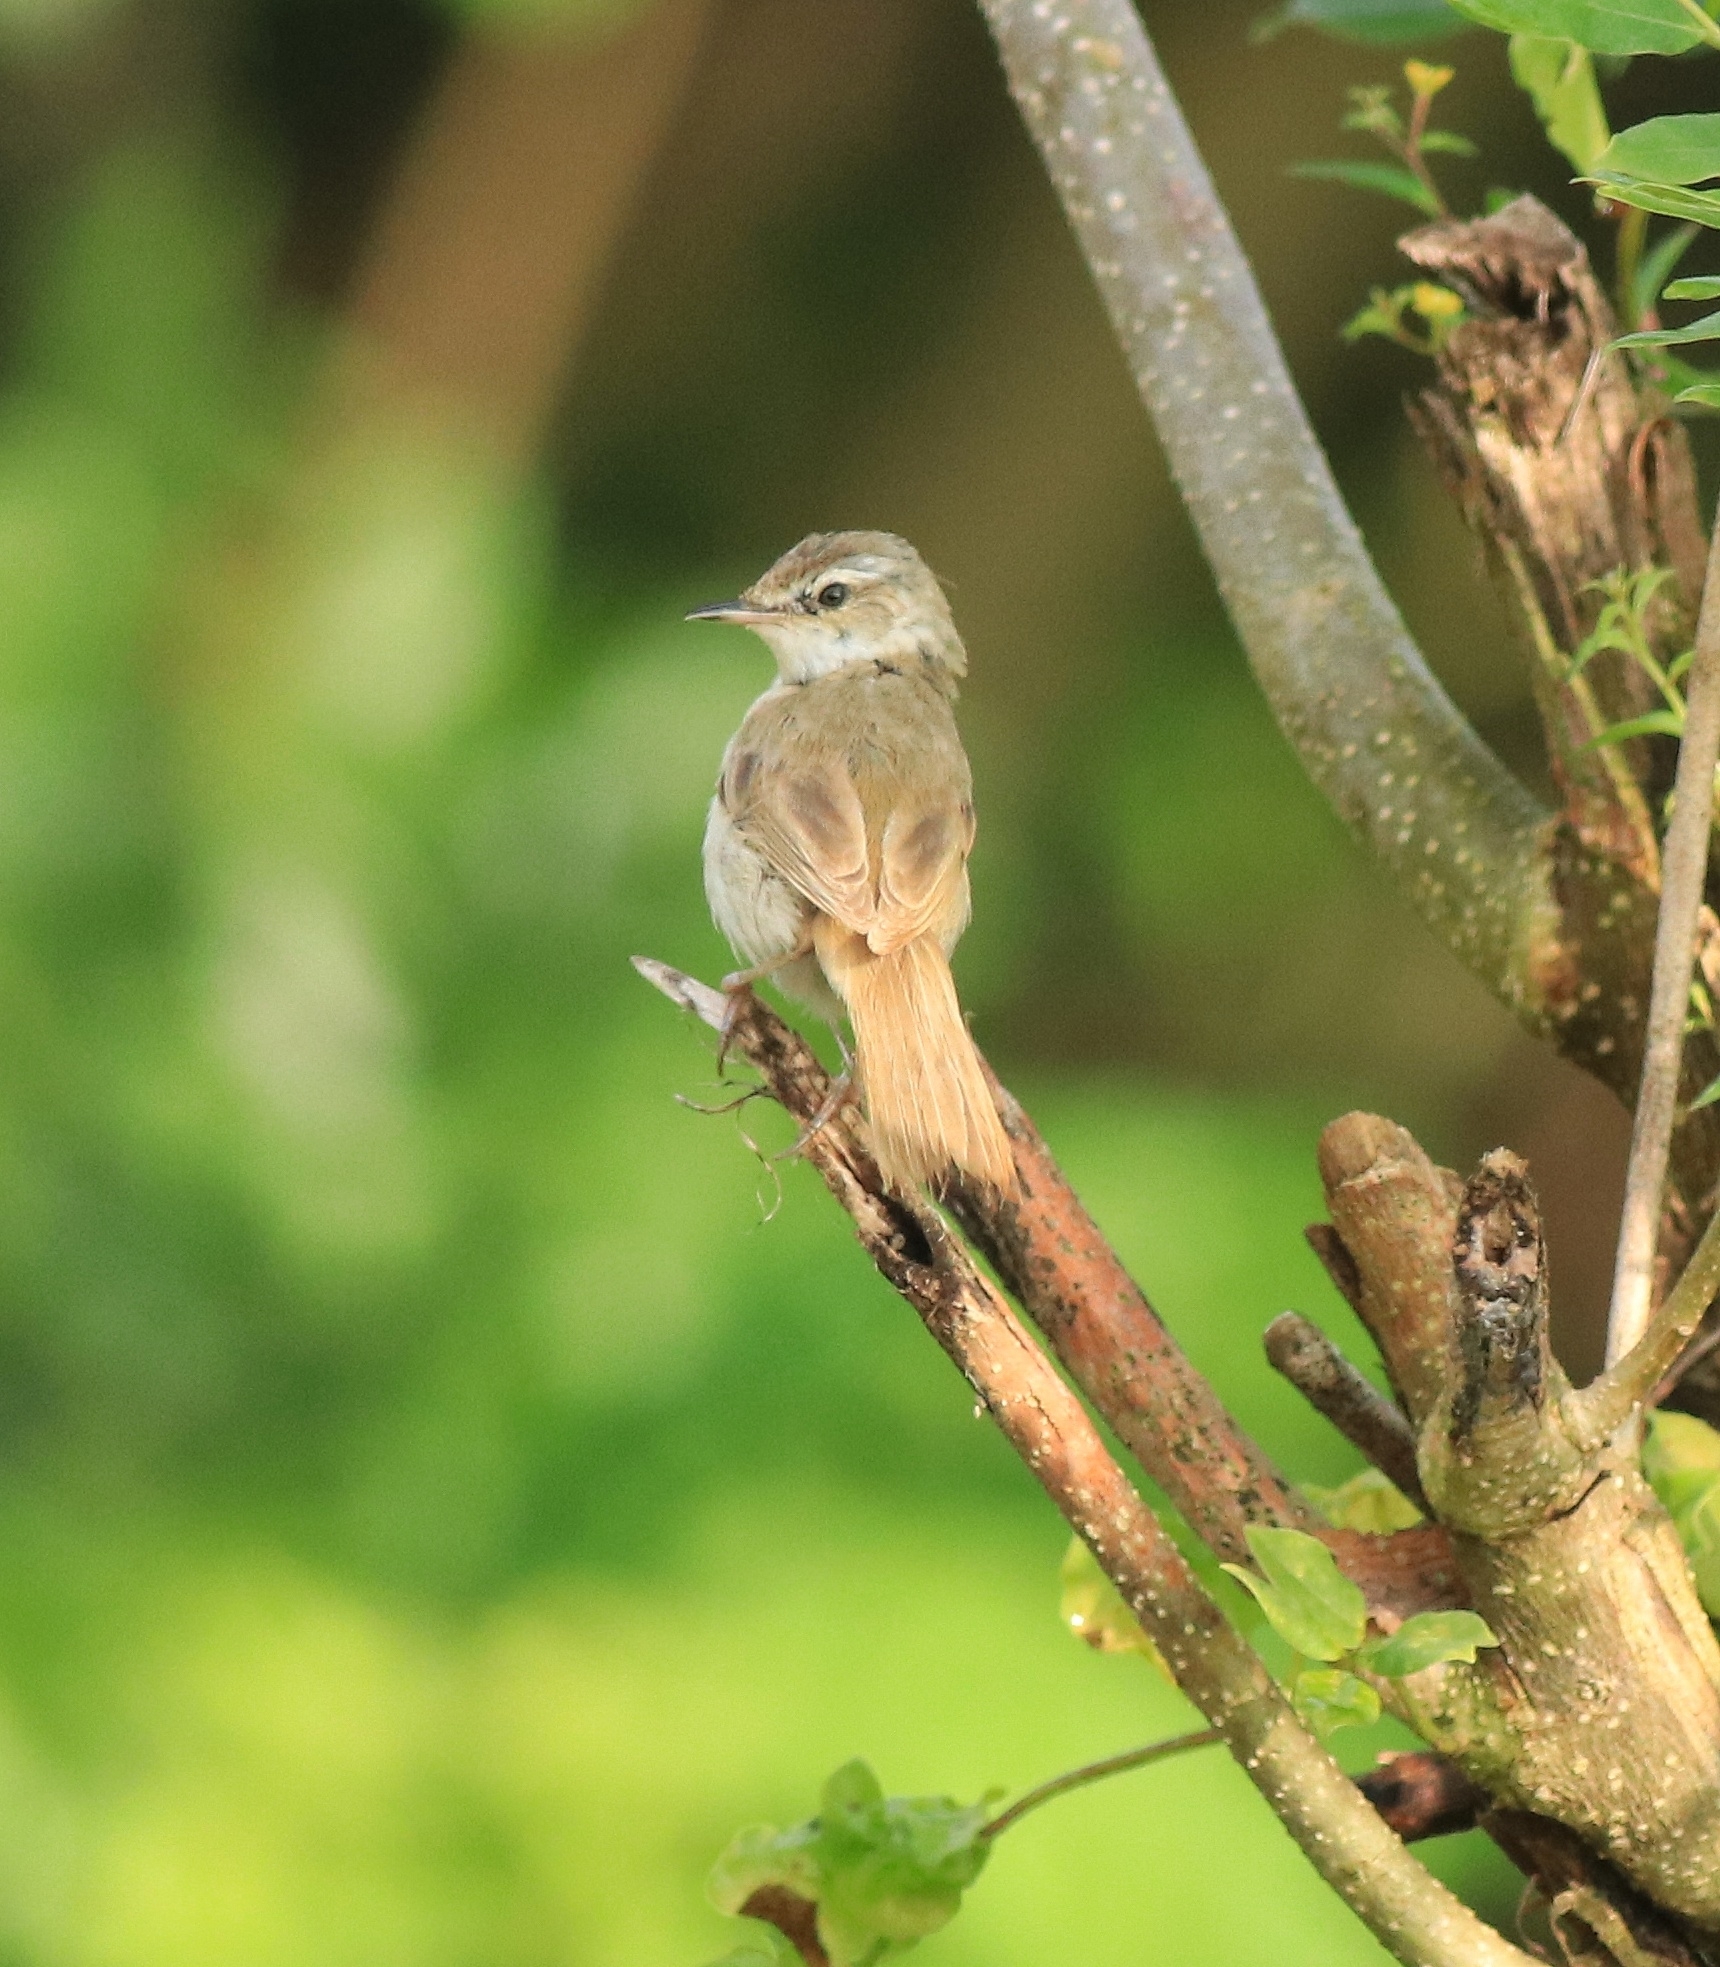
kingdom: Animalia
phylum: Chordata
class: Aves
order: Passeriformes
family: Acrocephalidae
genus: Acrocephalus
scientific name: Acrocephalus agricola
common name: Paddyfield warbler
